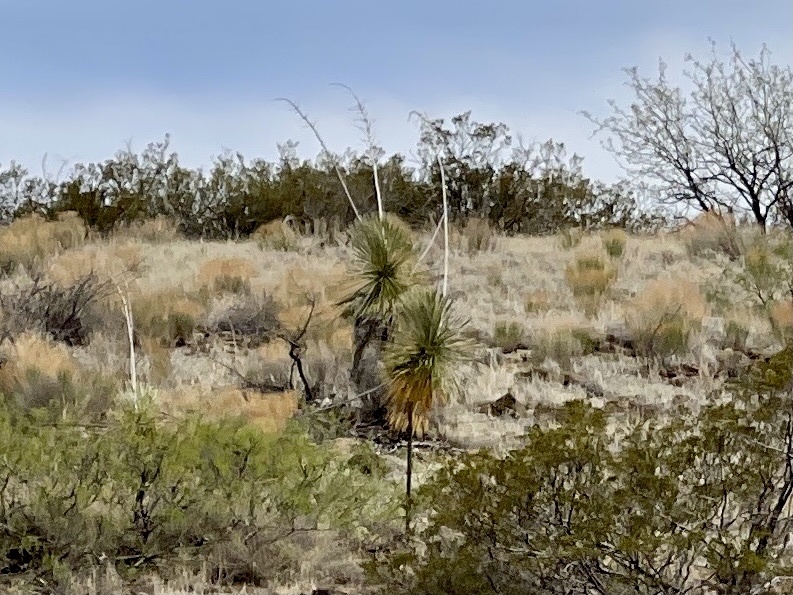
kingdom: Plantae
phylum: Tracheophyta
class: Liliopsida
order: Asparagales
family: Asparagaceae
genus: Yucca
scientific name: Yucca elata
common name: Palmella
